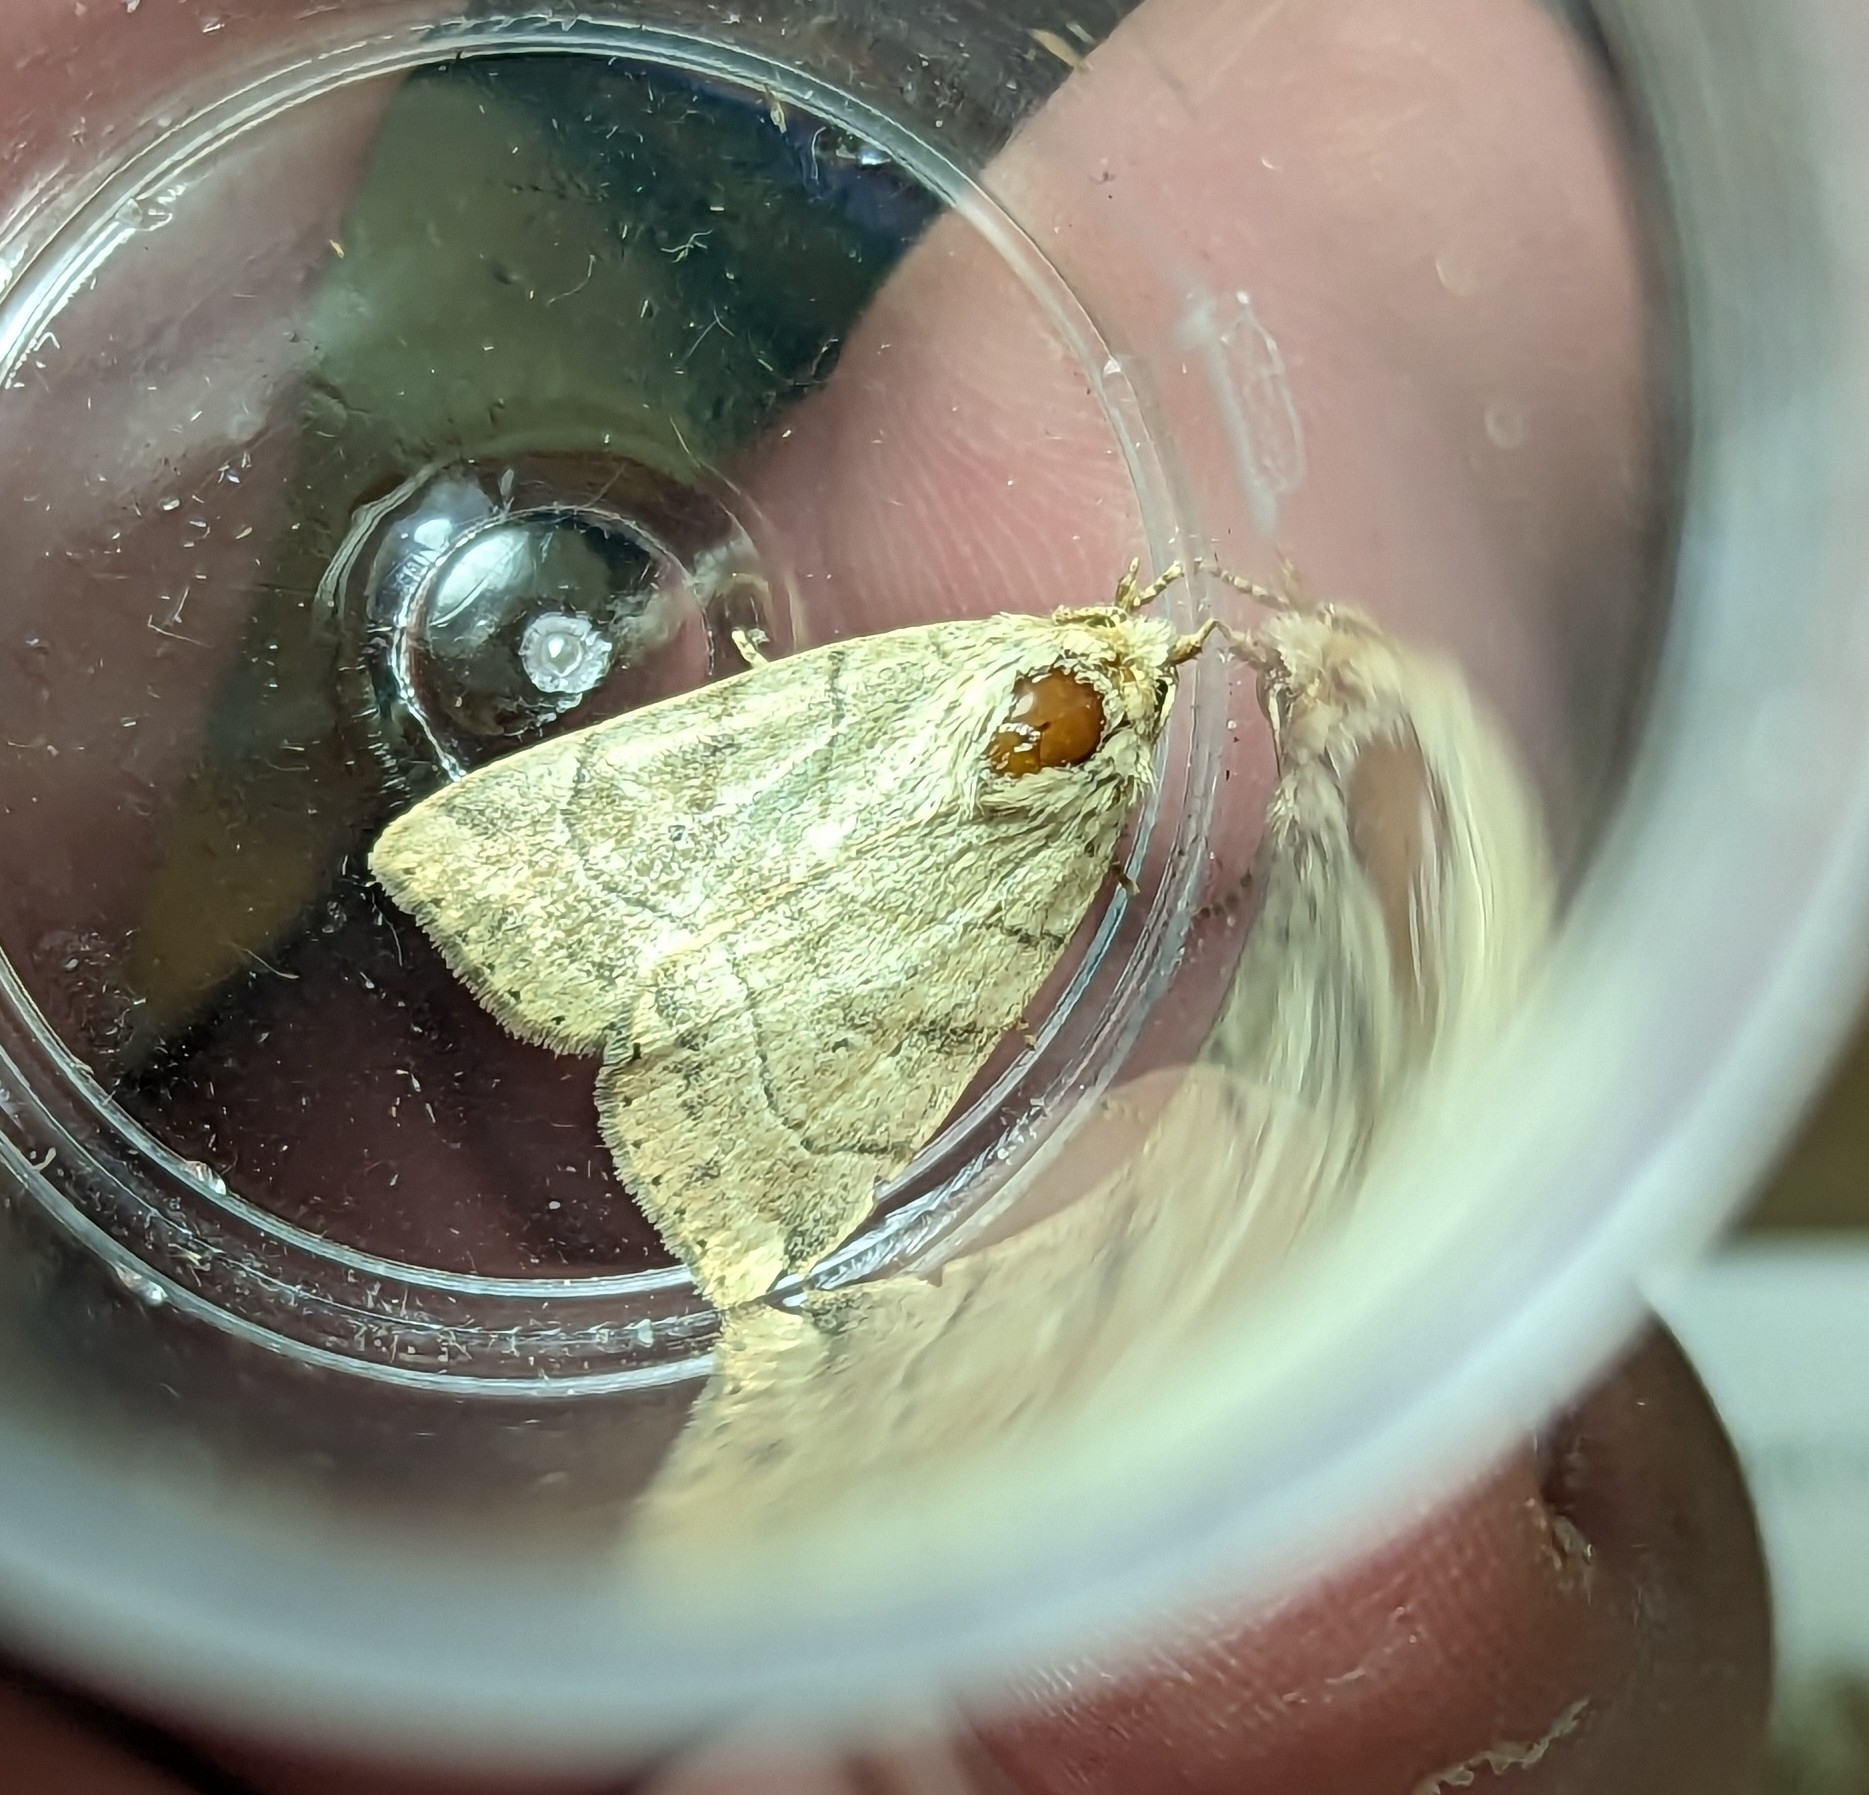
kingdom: Animalia
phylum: Arthropoda
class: Insecta
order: Lepidoptera
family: Noctuidae
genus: Cosmia
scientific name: Cosmia trapezina
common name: Dun-bar
